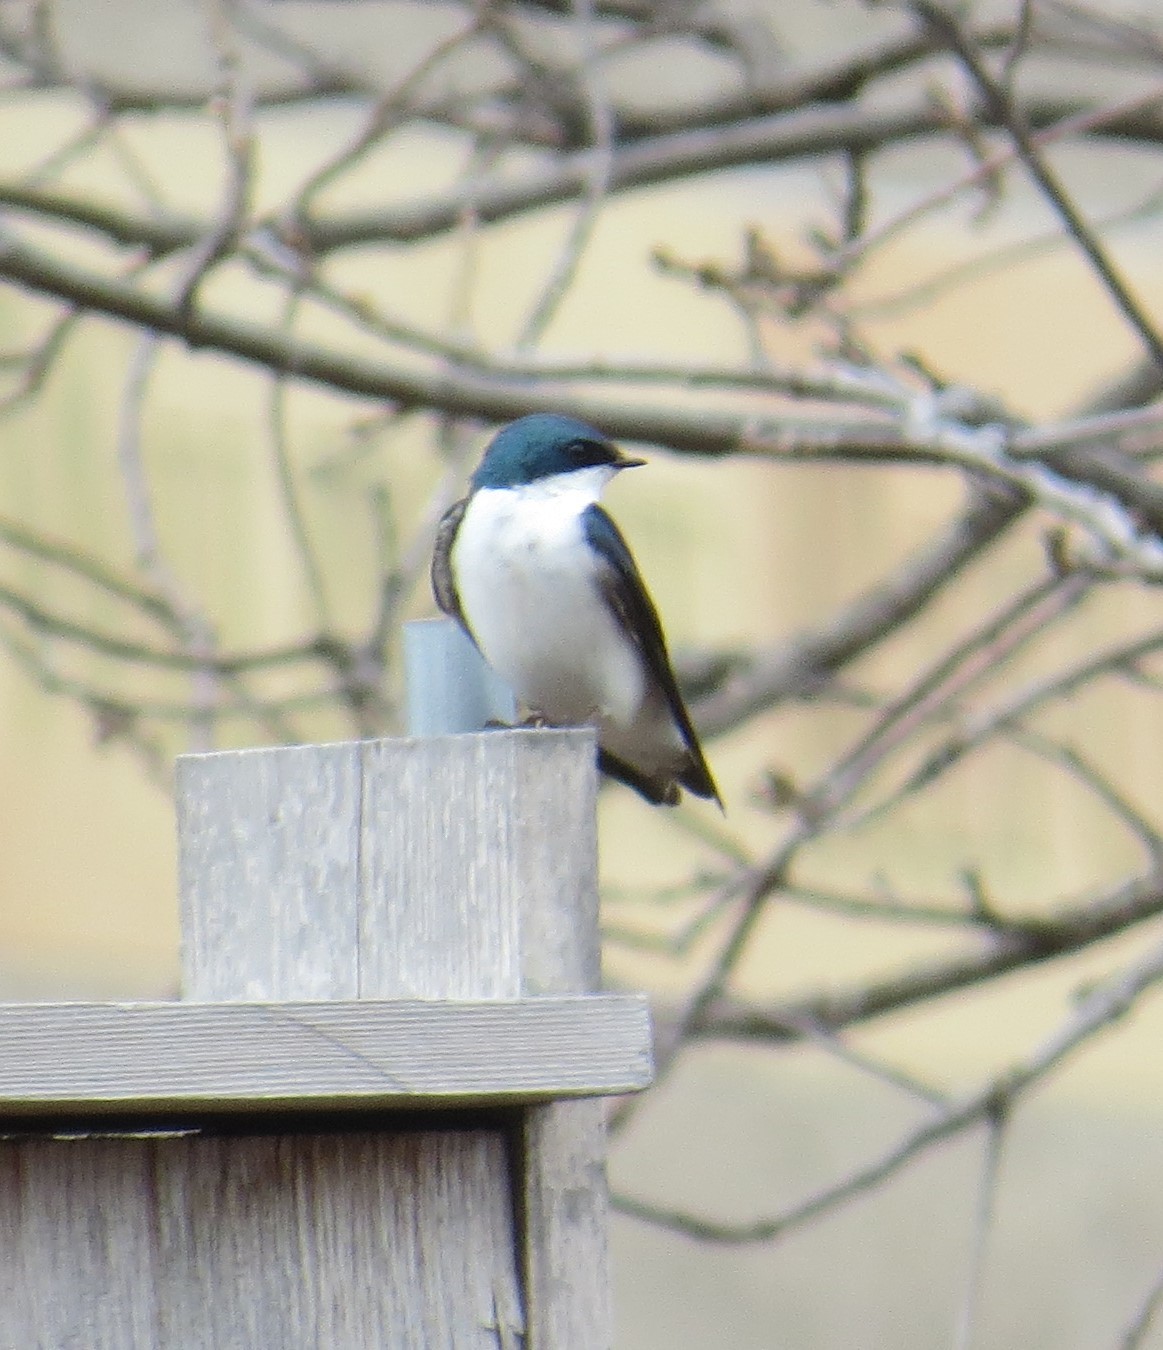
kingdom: Animalia
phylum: Chordata
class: Aves
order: Passeriformes
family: Hirundinidae
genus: Tachycineta
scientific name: Tachycineta bicolor
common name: Tree swallow
